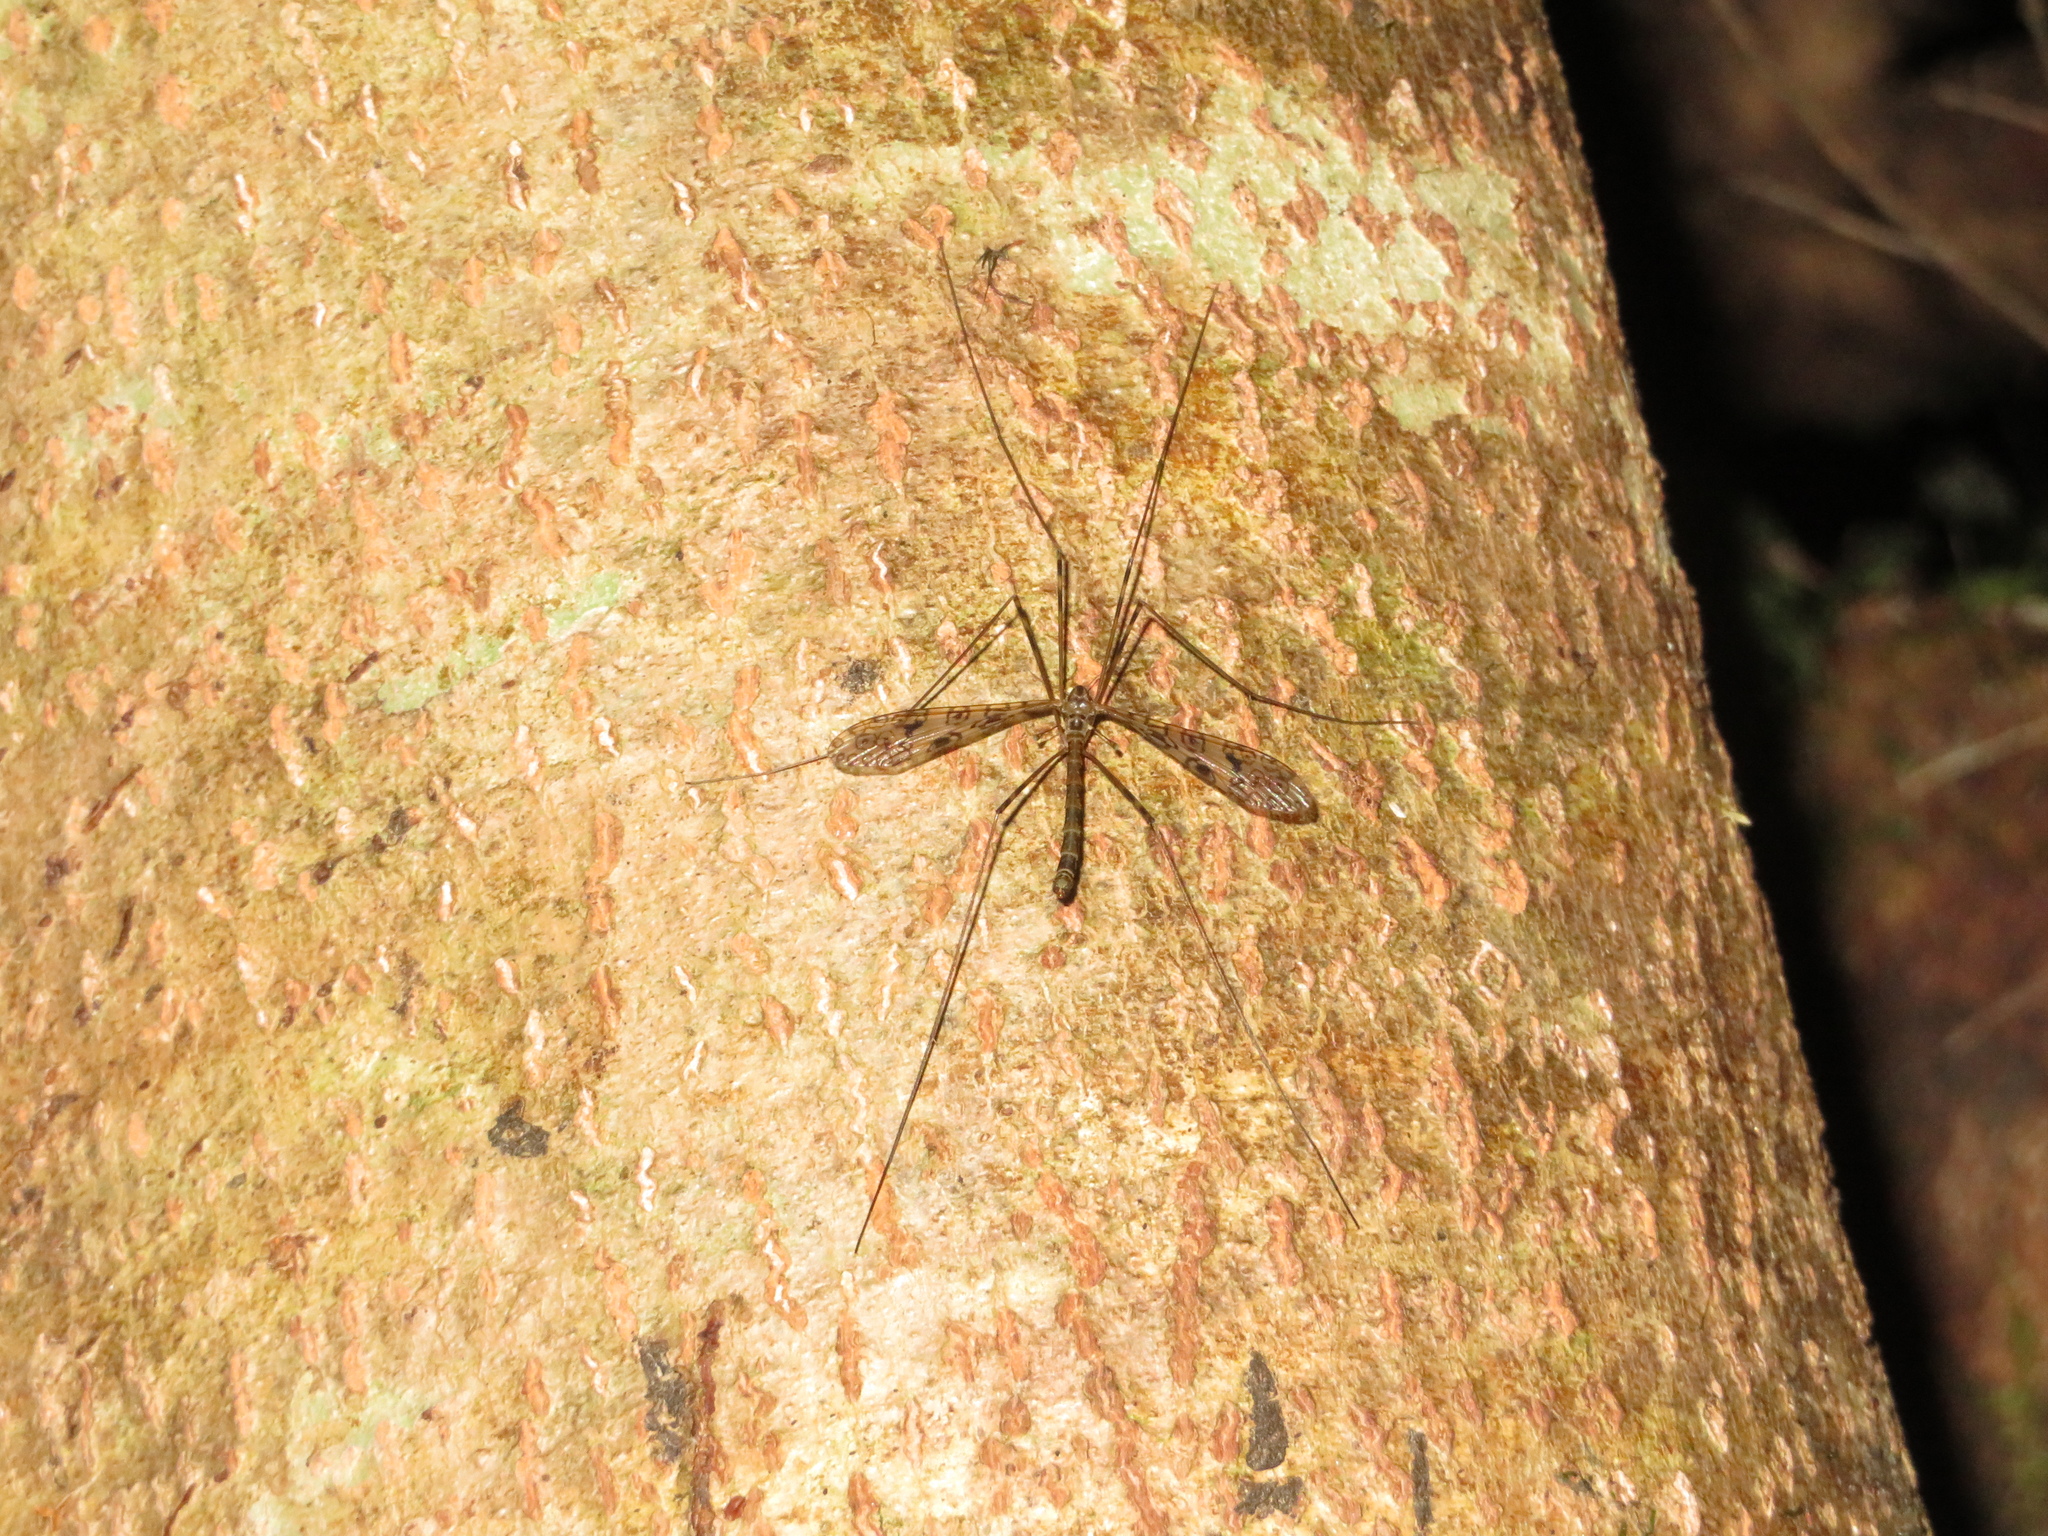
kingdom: Animalia
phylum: Arthropoda
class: Insecta
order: Diptera
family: Limoniidae
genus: Austrolimnophila
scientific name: Austrolimnophila argus
